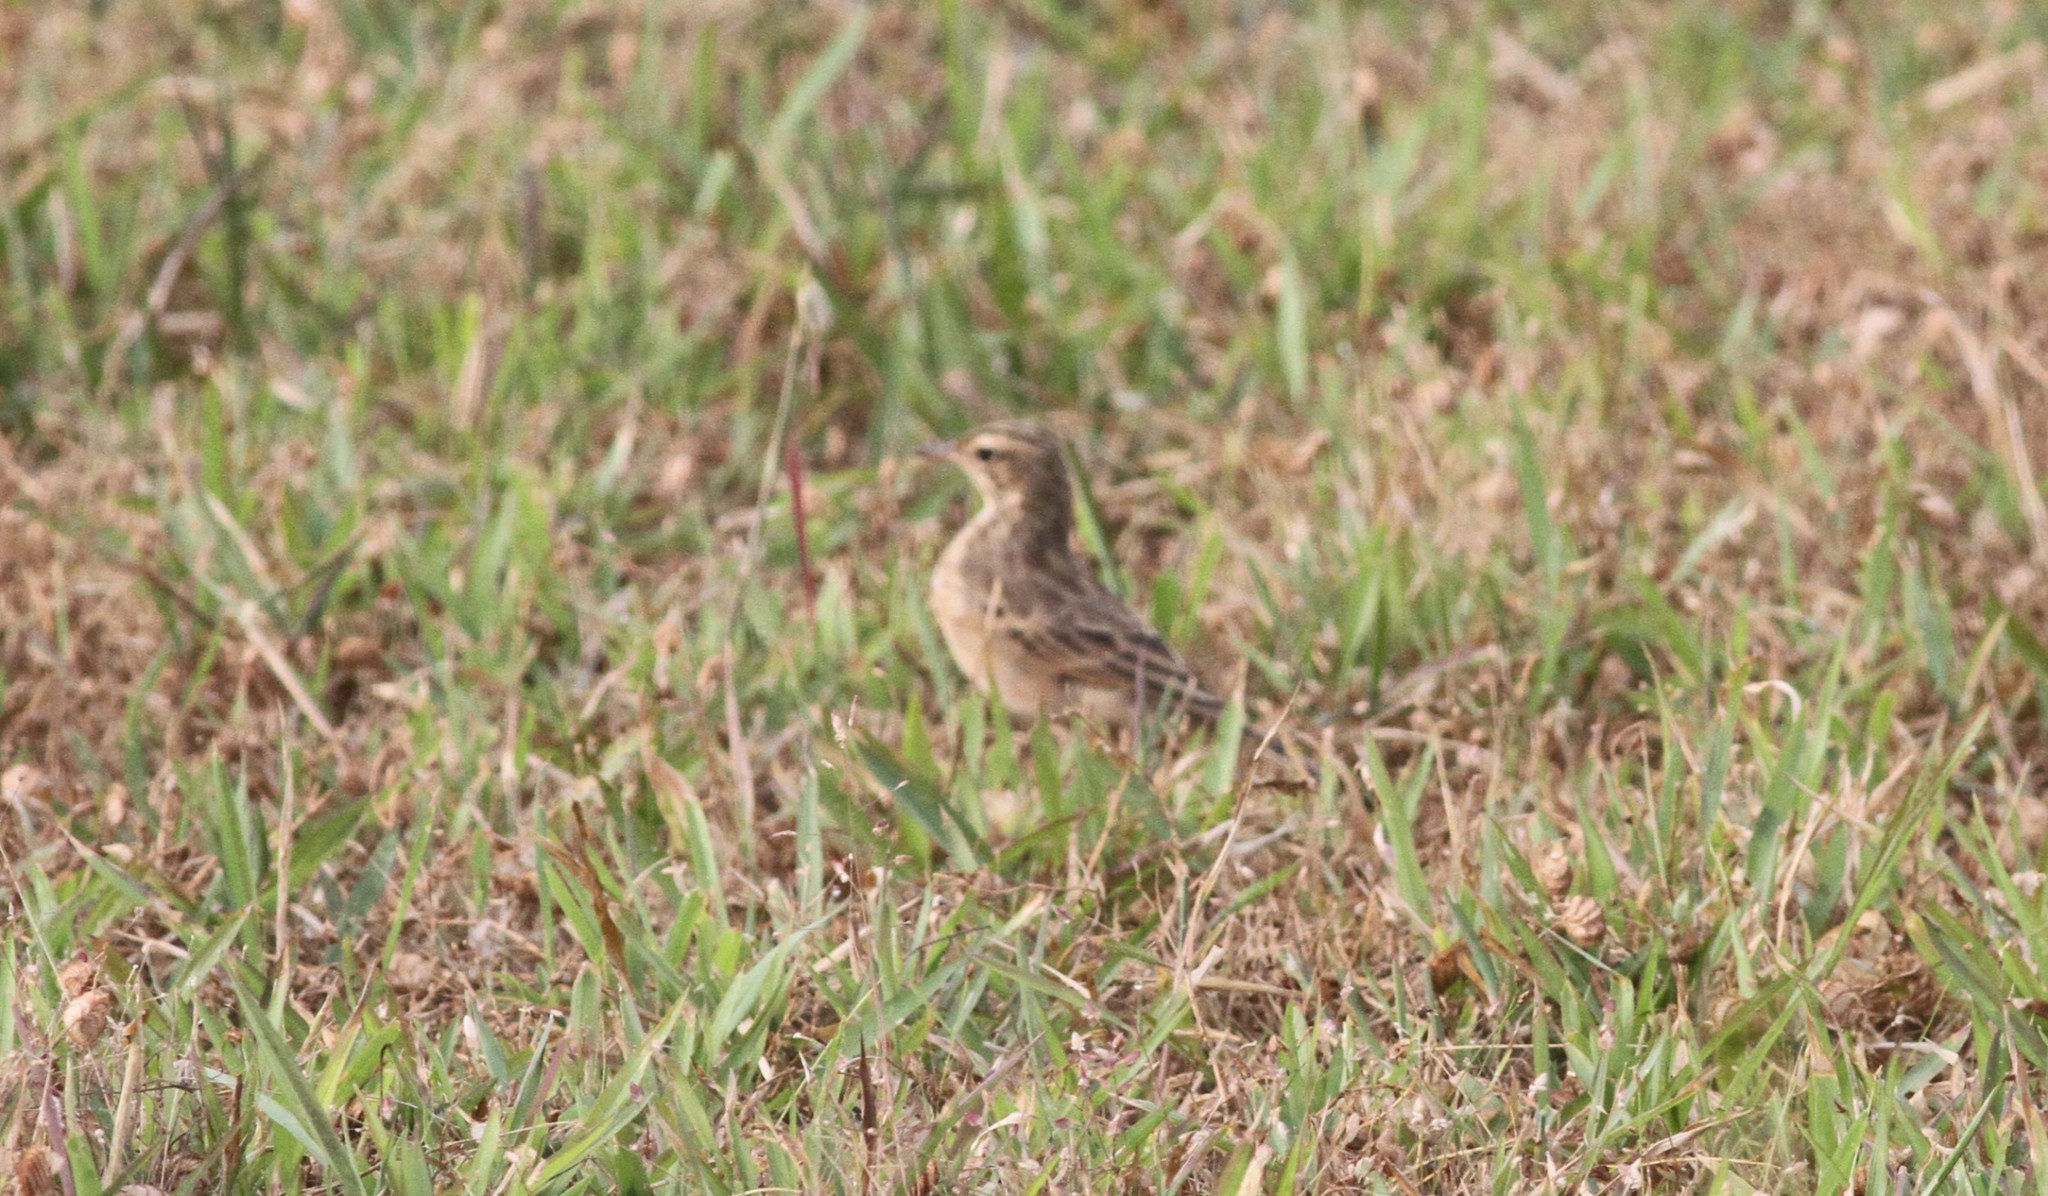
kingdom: Animalia
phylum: Chordata
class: Aves
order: Passeriformes
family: Motacillidae
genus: Anthus
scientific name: Anthus rufulus
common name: Paddyfield pipit
